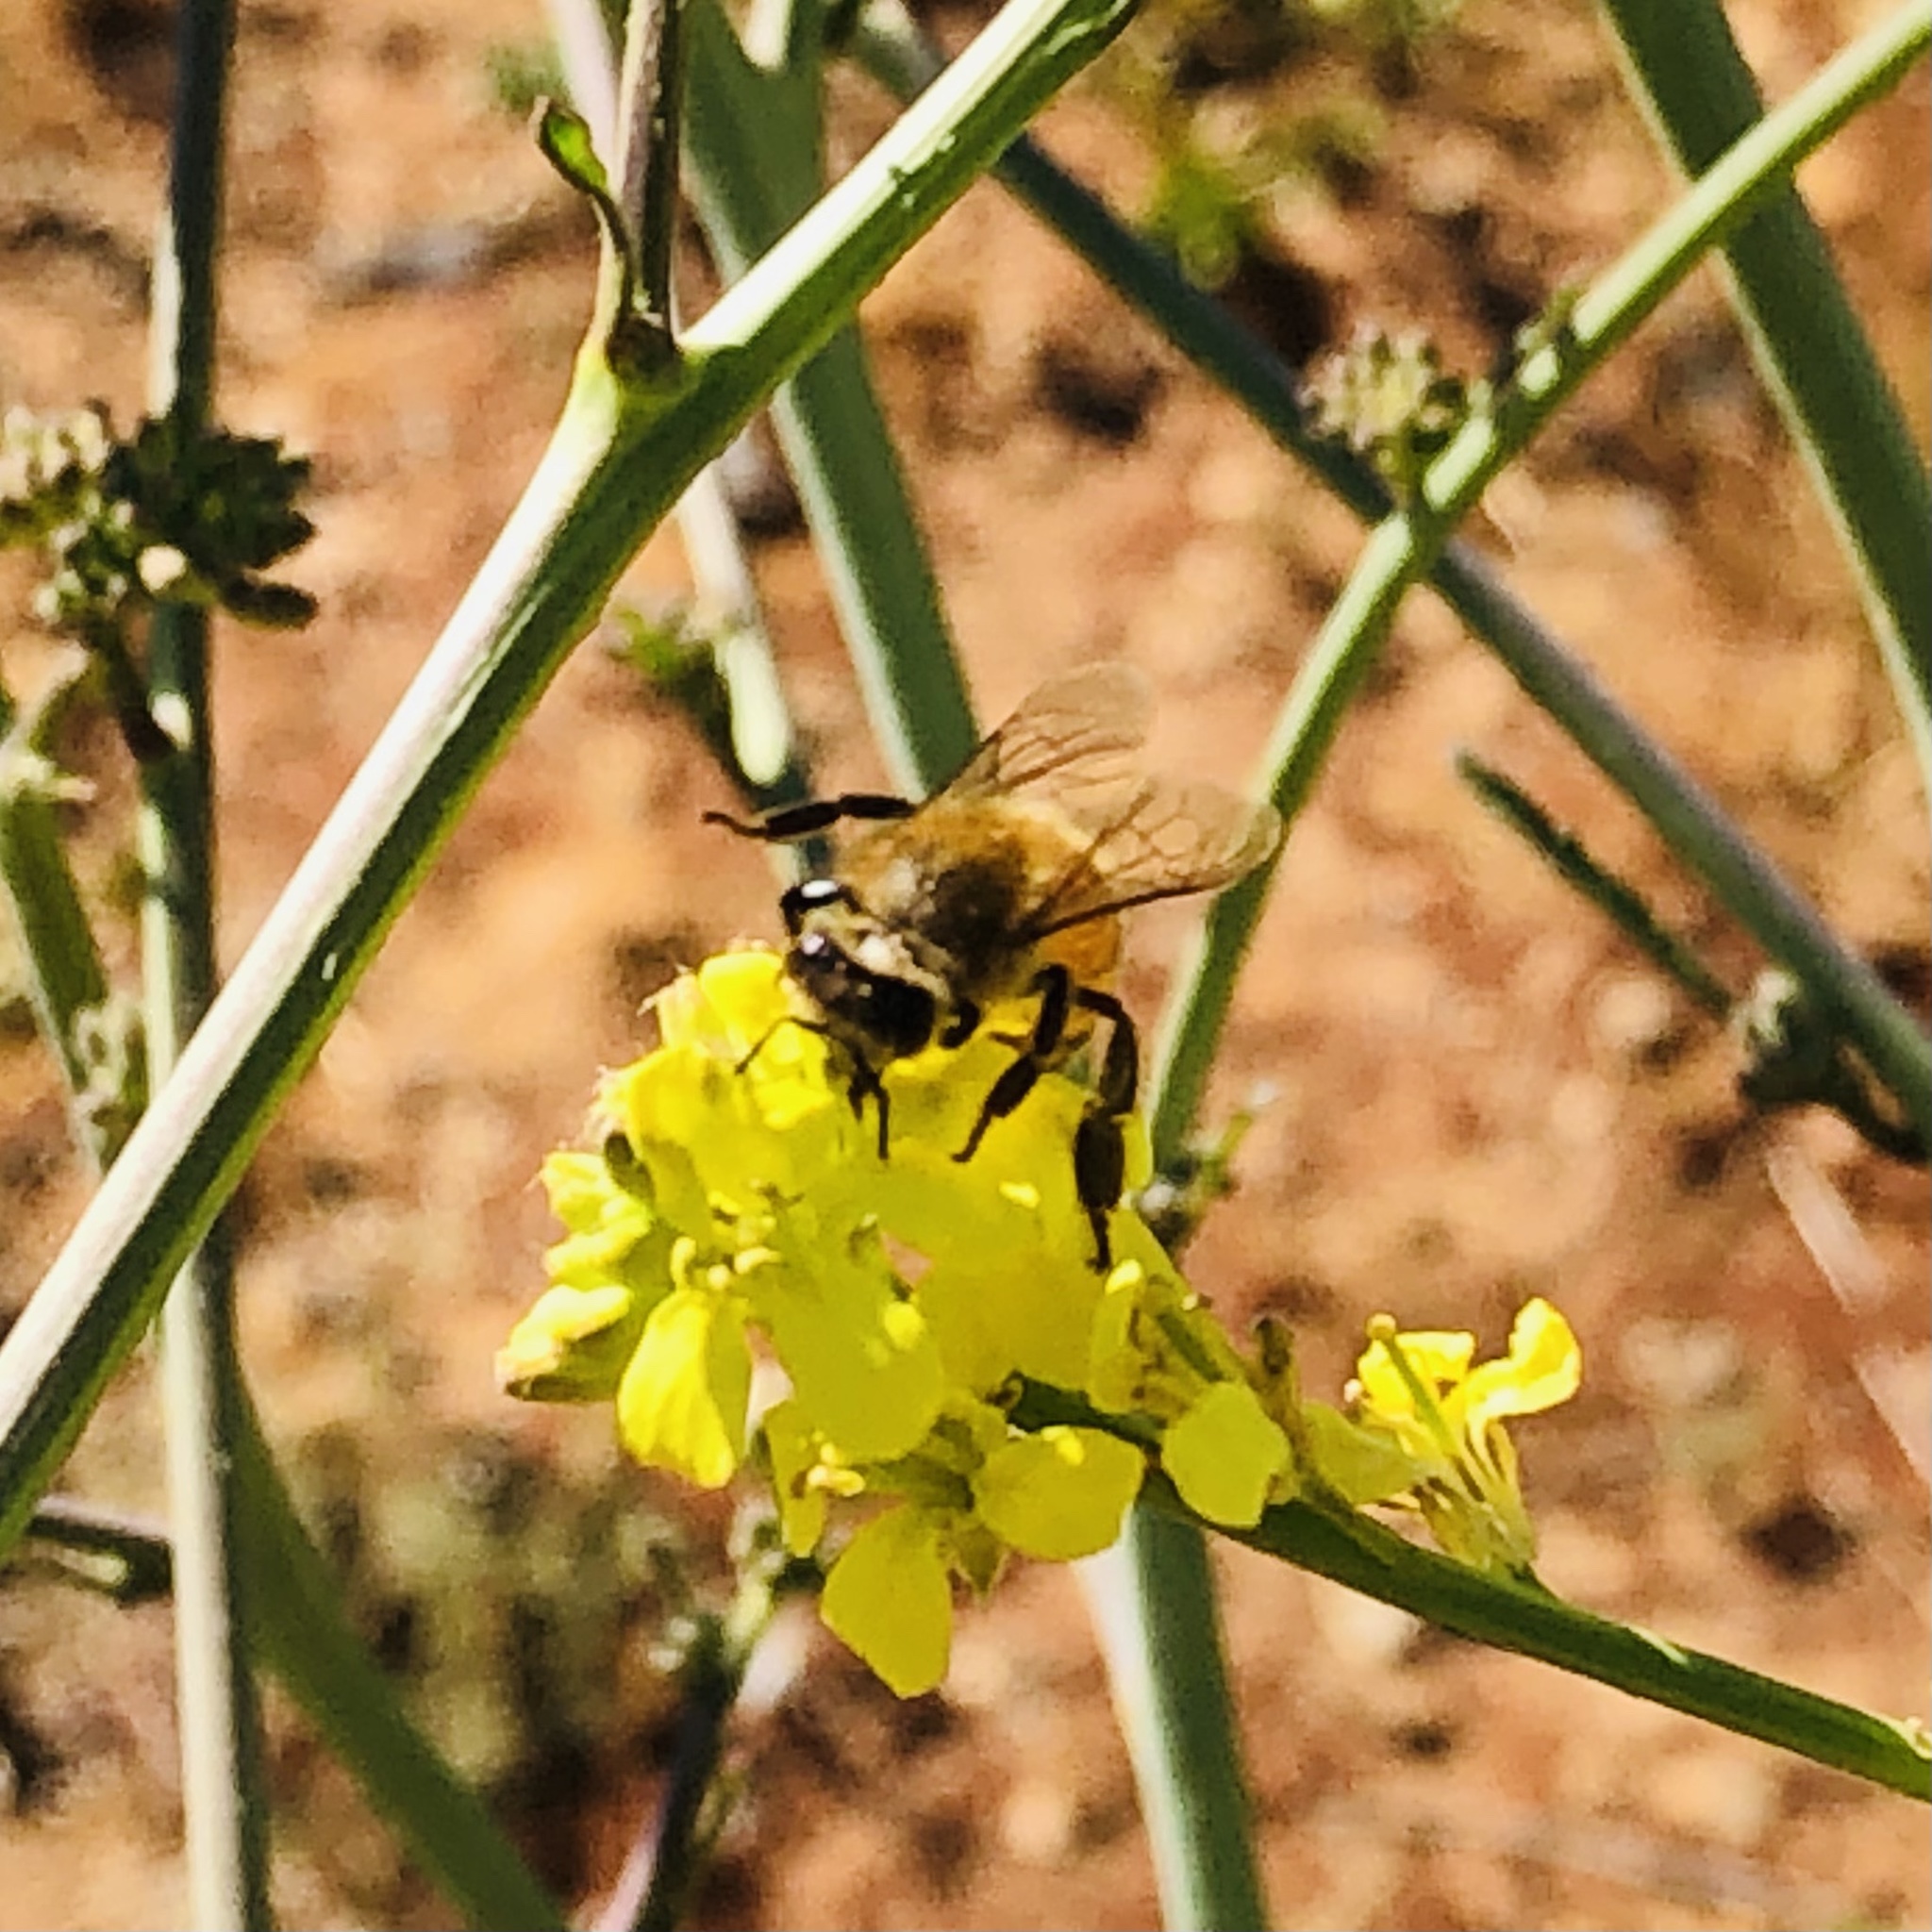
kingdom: Animalia
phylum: Arthropoda
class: Insecta
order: Hymenoptera
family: Apidae
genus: Apis
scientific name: Apis mellifera
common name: Honey bee
